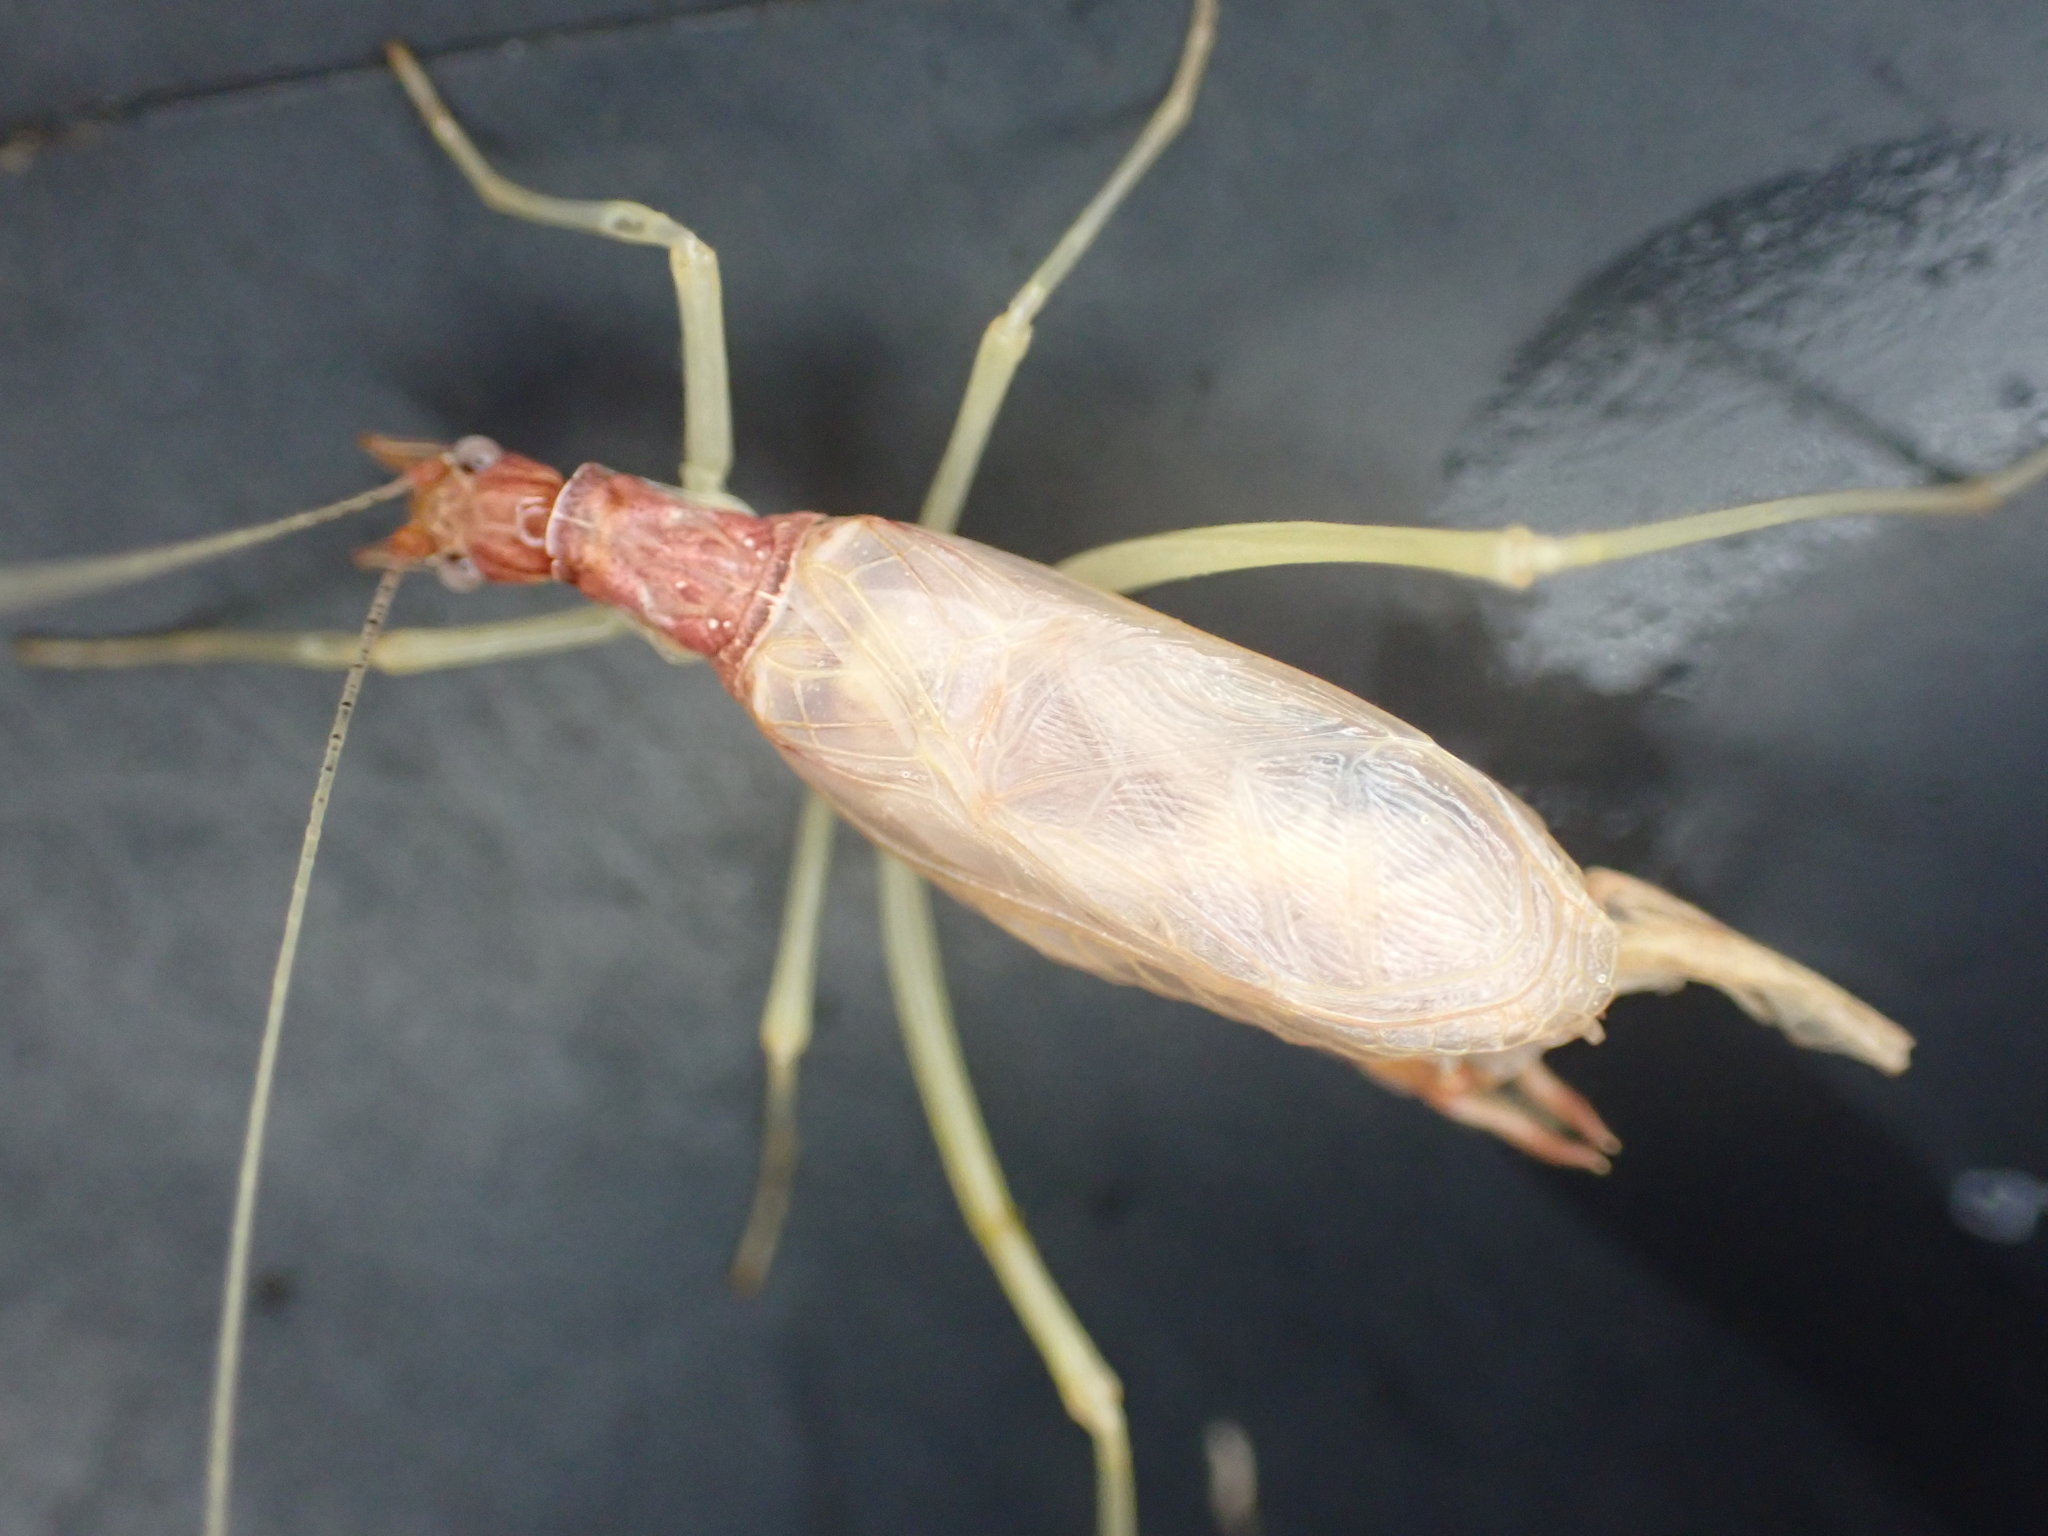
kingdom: Animalia
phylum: Arthropoda
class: Insecta
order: Orthoptera
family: Gryllidae
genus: Neoxabea
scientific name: Neoxabea bipunctata
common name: Two-spotted tree cricket
